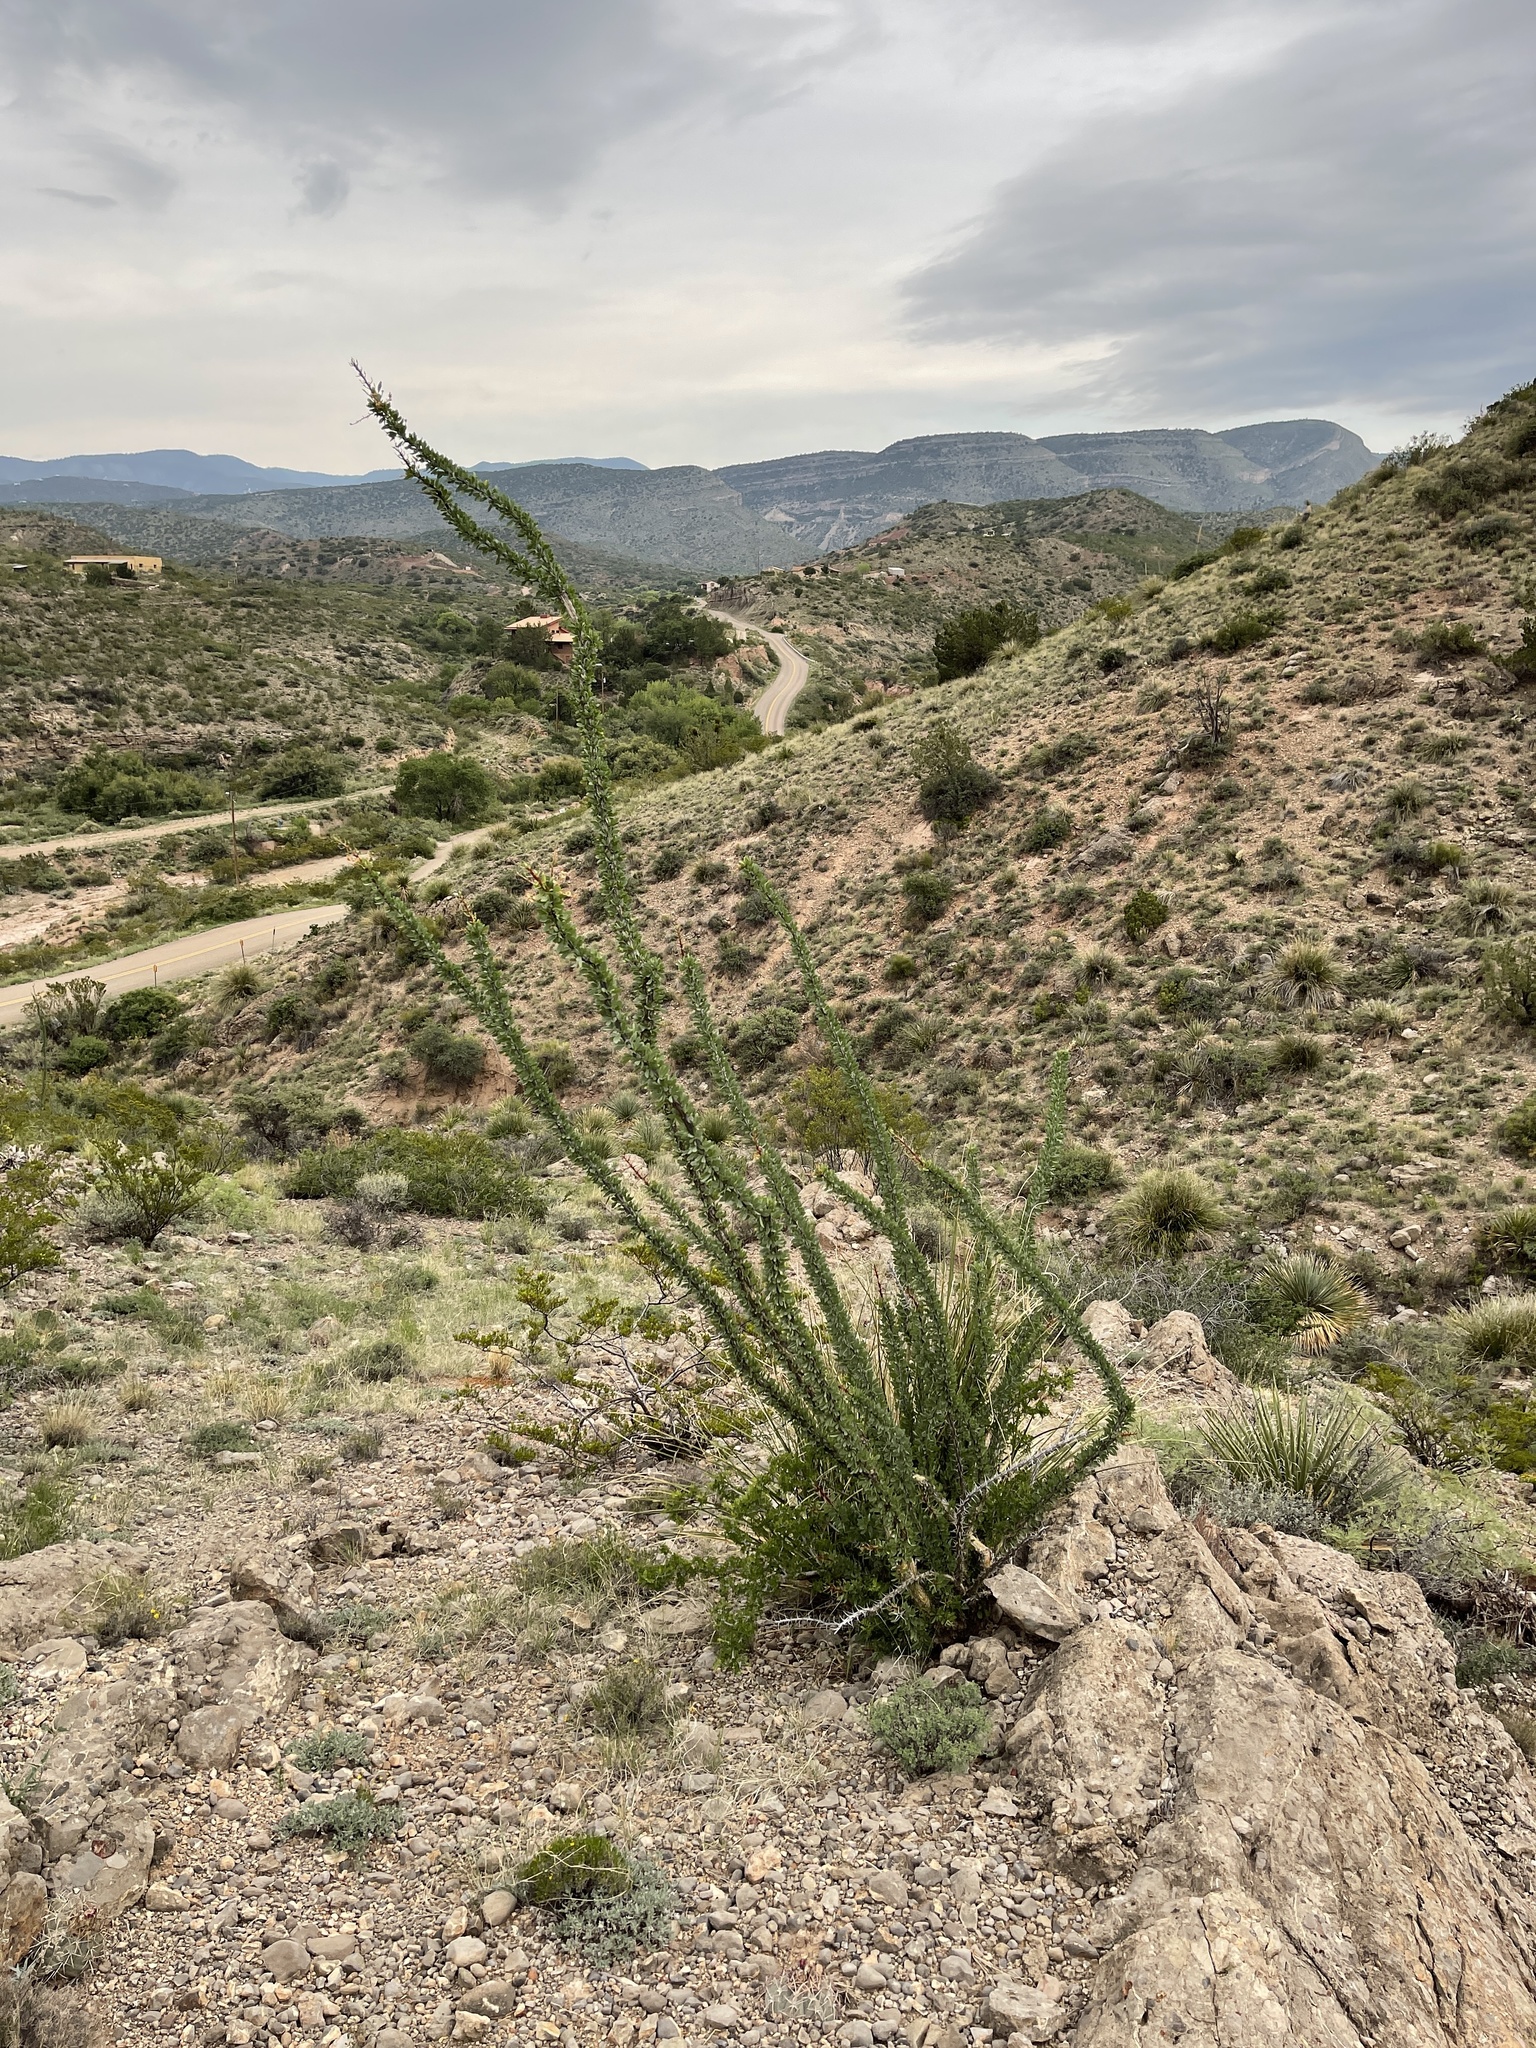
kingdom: Plantae
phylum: Tracheophyta
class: Magnoliopsida
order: Ericales
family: Fouquieriaceae
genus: Fouquieria
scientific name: Fouquieria splendens
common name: Vine-cactus
